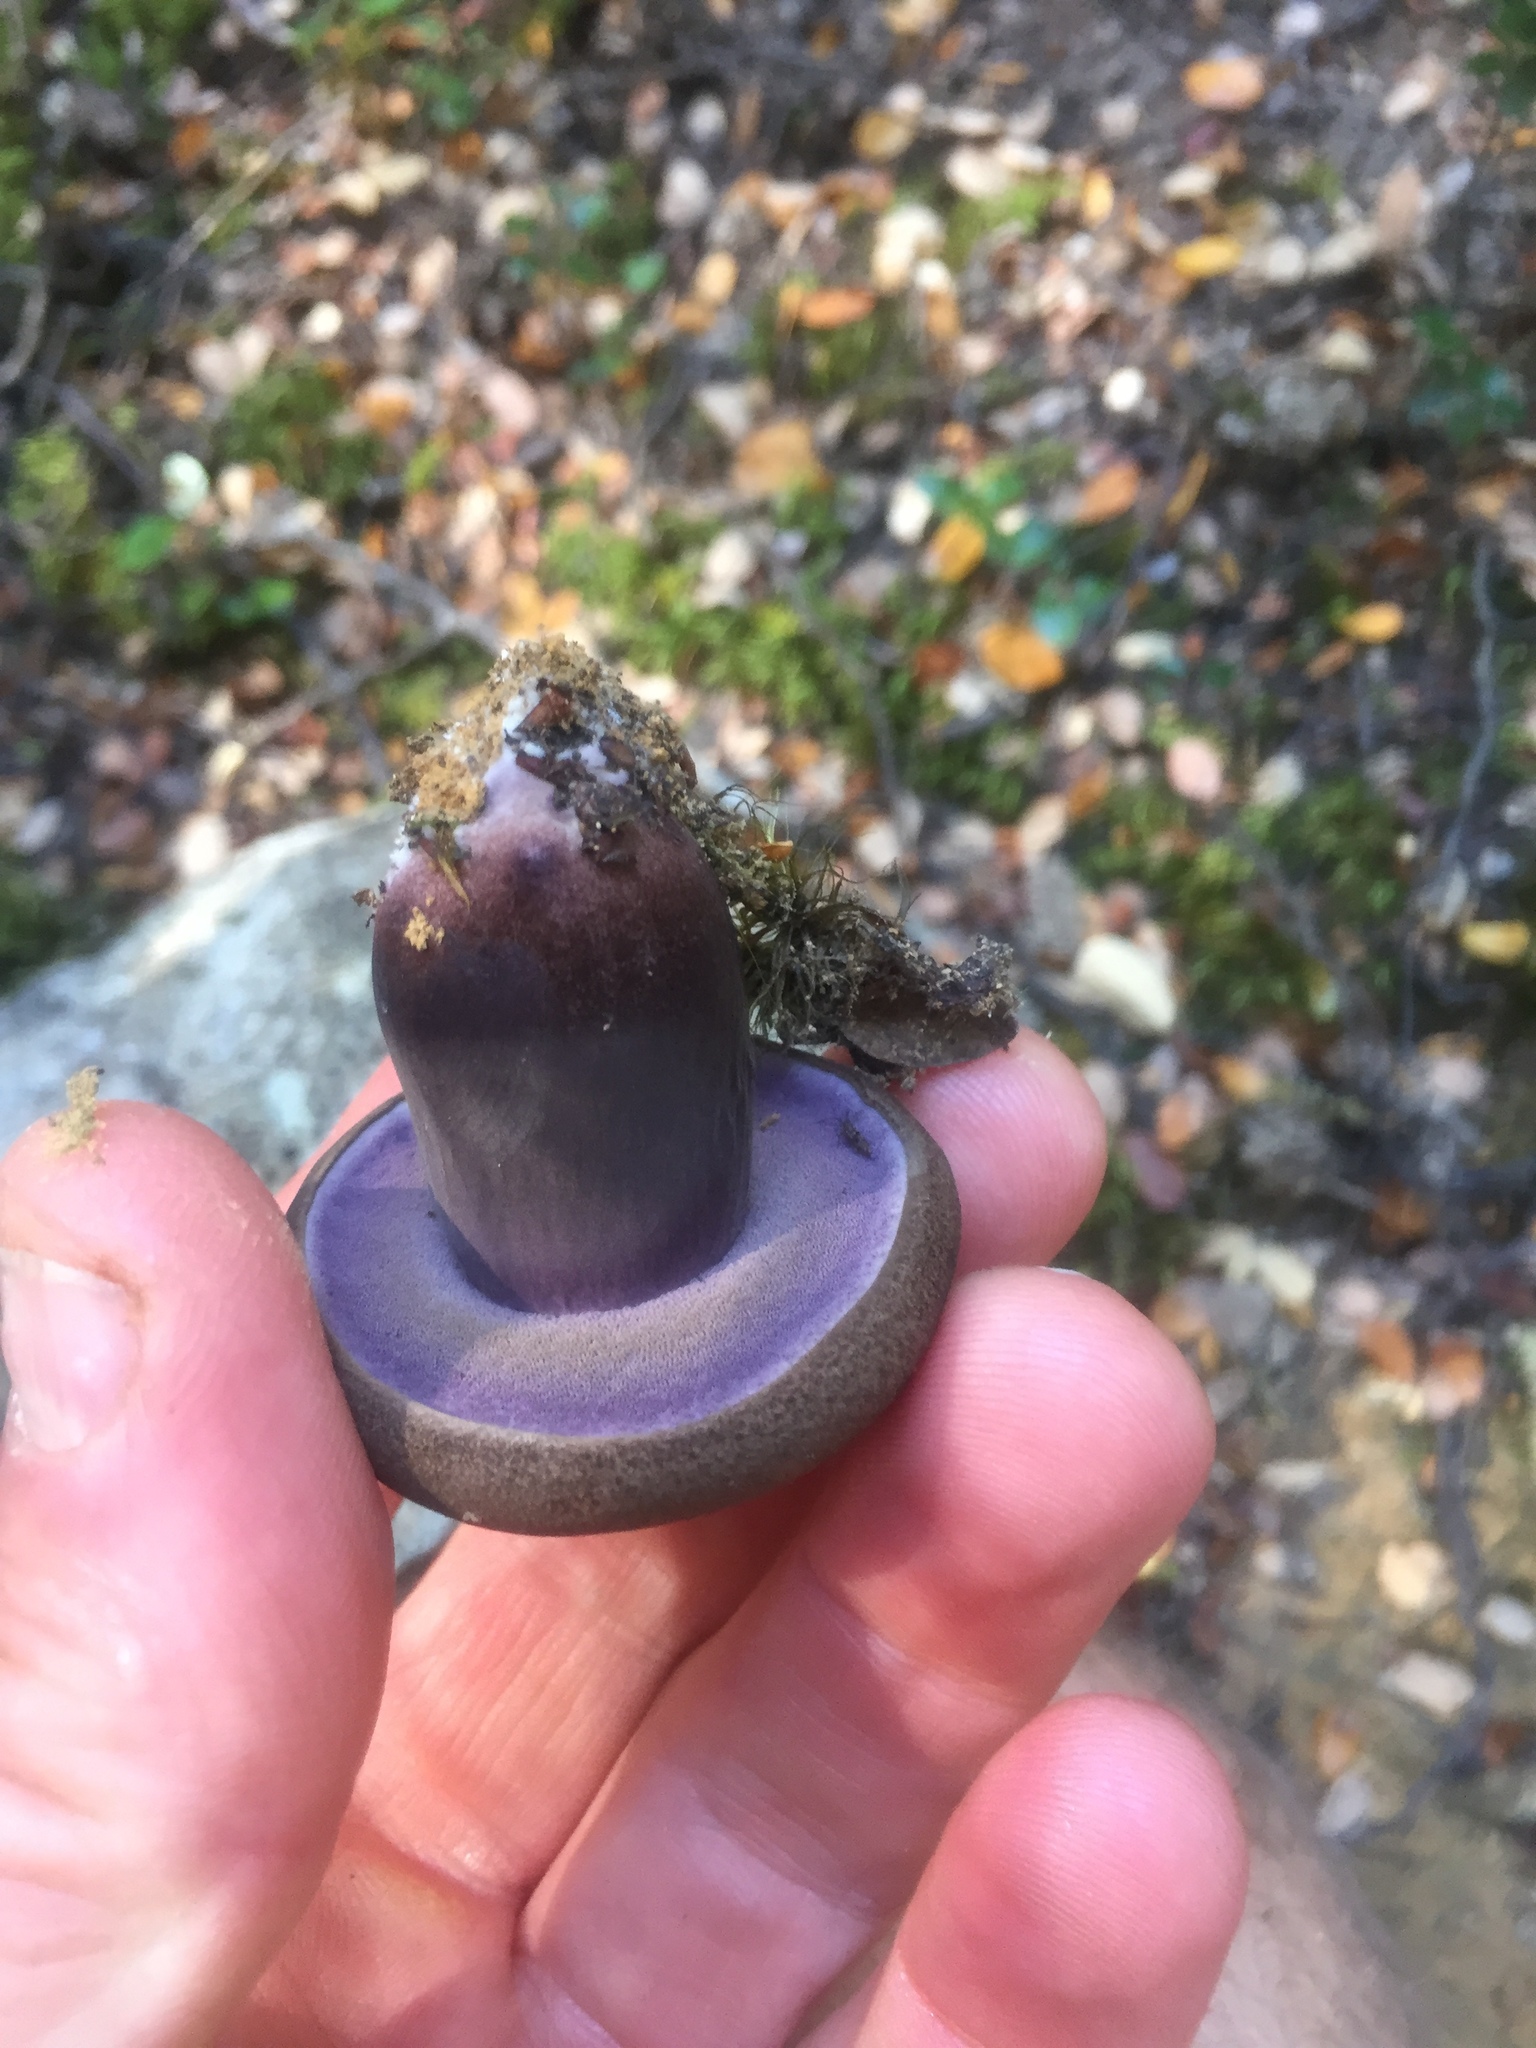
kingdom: Fungi
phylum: Basidiomycota
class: Agaricomycetes
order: Boletales
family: Boletaceae
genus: Porphyrellus
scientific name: Porphyrellus formosus
